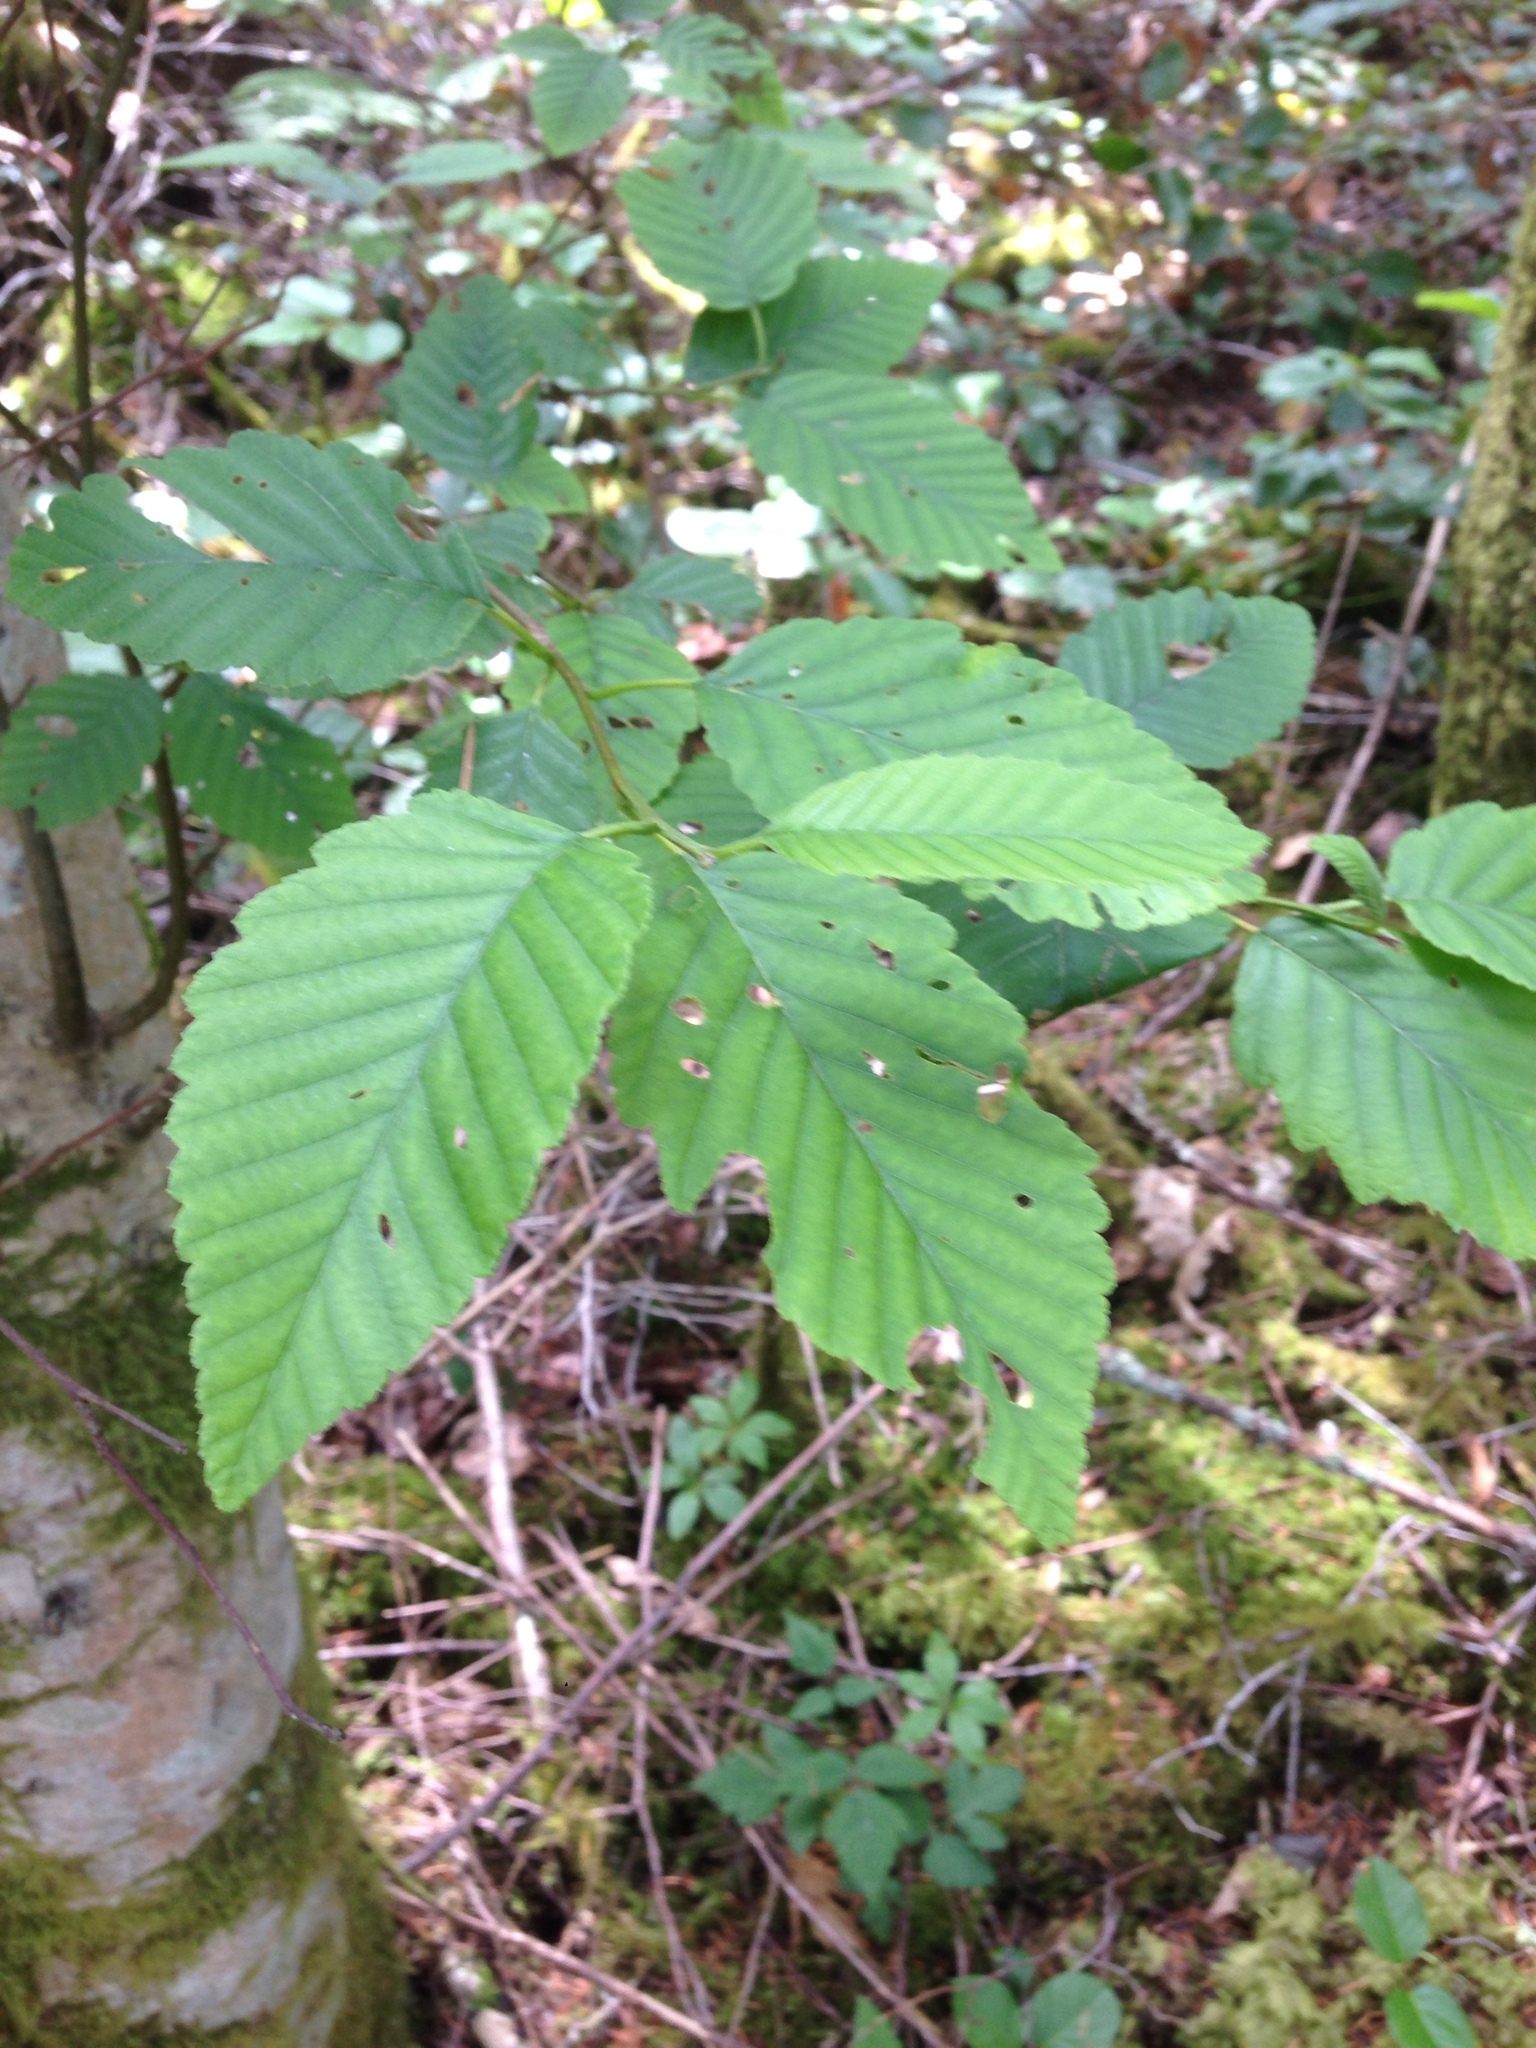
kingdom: Plantae
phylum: Tracheophyta
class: Magnoliopsida
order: Fagales
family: Betulaceae
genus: Alnus
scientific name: Alnus rubra
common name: Red alder
